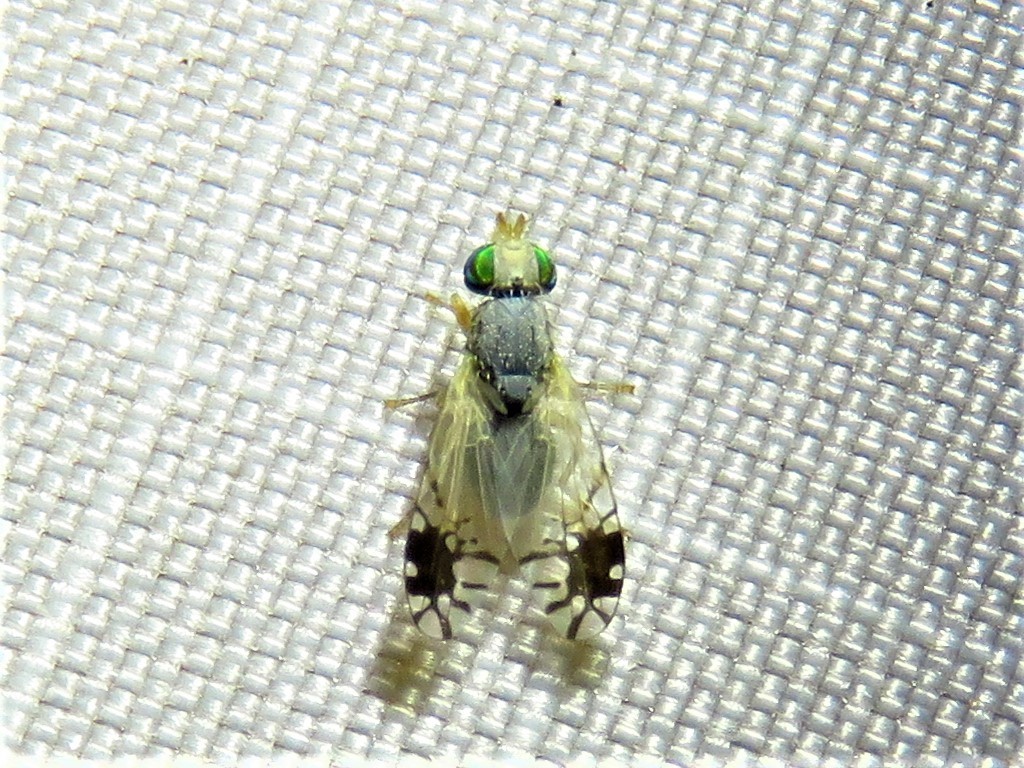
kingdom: Animalia
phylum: Arthropoda
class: Insecta
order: Diptera
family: Tephritidae
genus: Trupanea
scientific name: Trupanea texana
